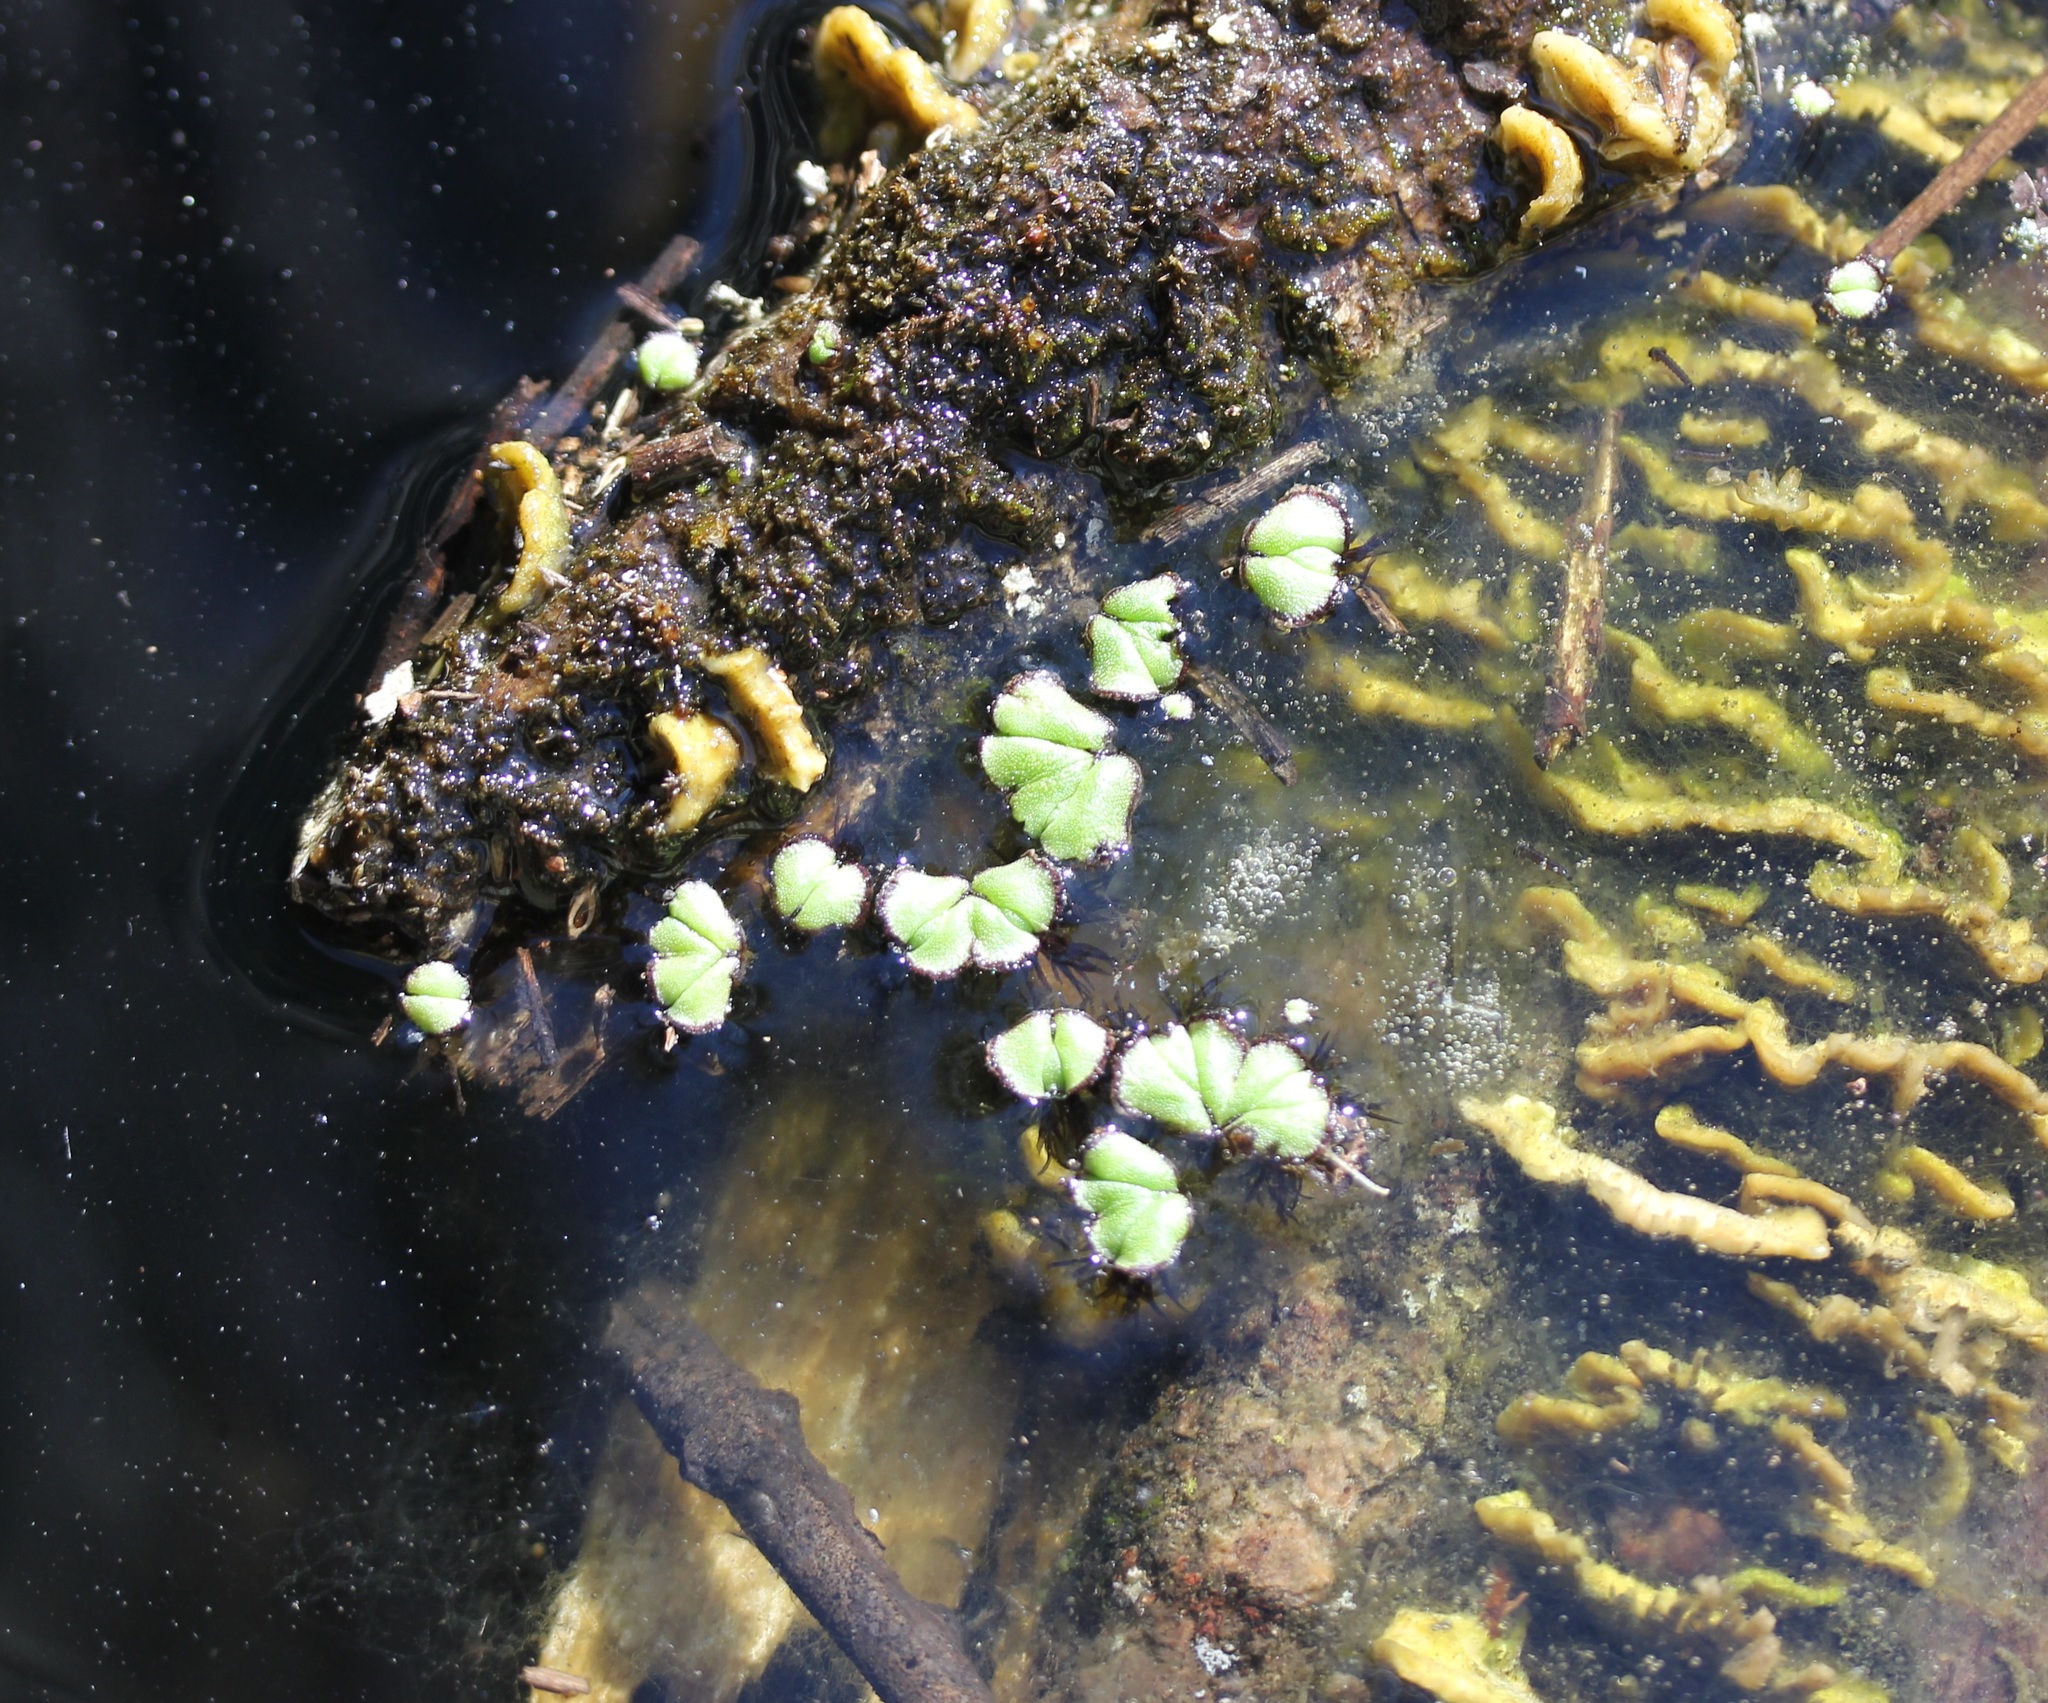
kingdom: Plantae
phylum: Marchantiophyta
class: Marchantiopsida
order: Marchantiales
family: Ricciaceae
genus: Ricciocarpos
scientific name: Ricciocarpos natans
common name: Purple-fringed liverwort
